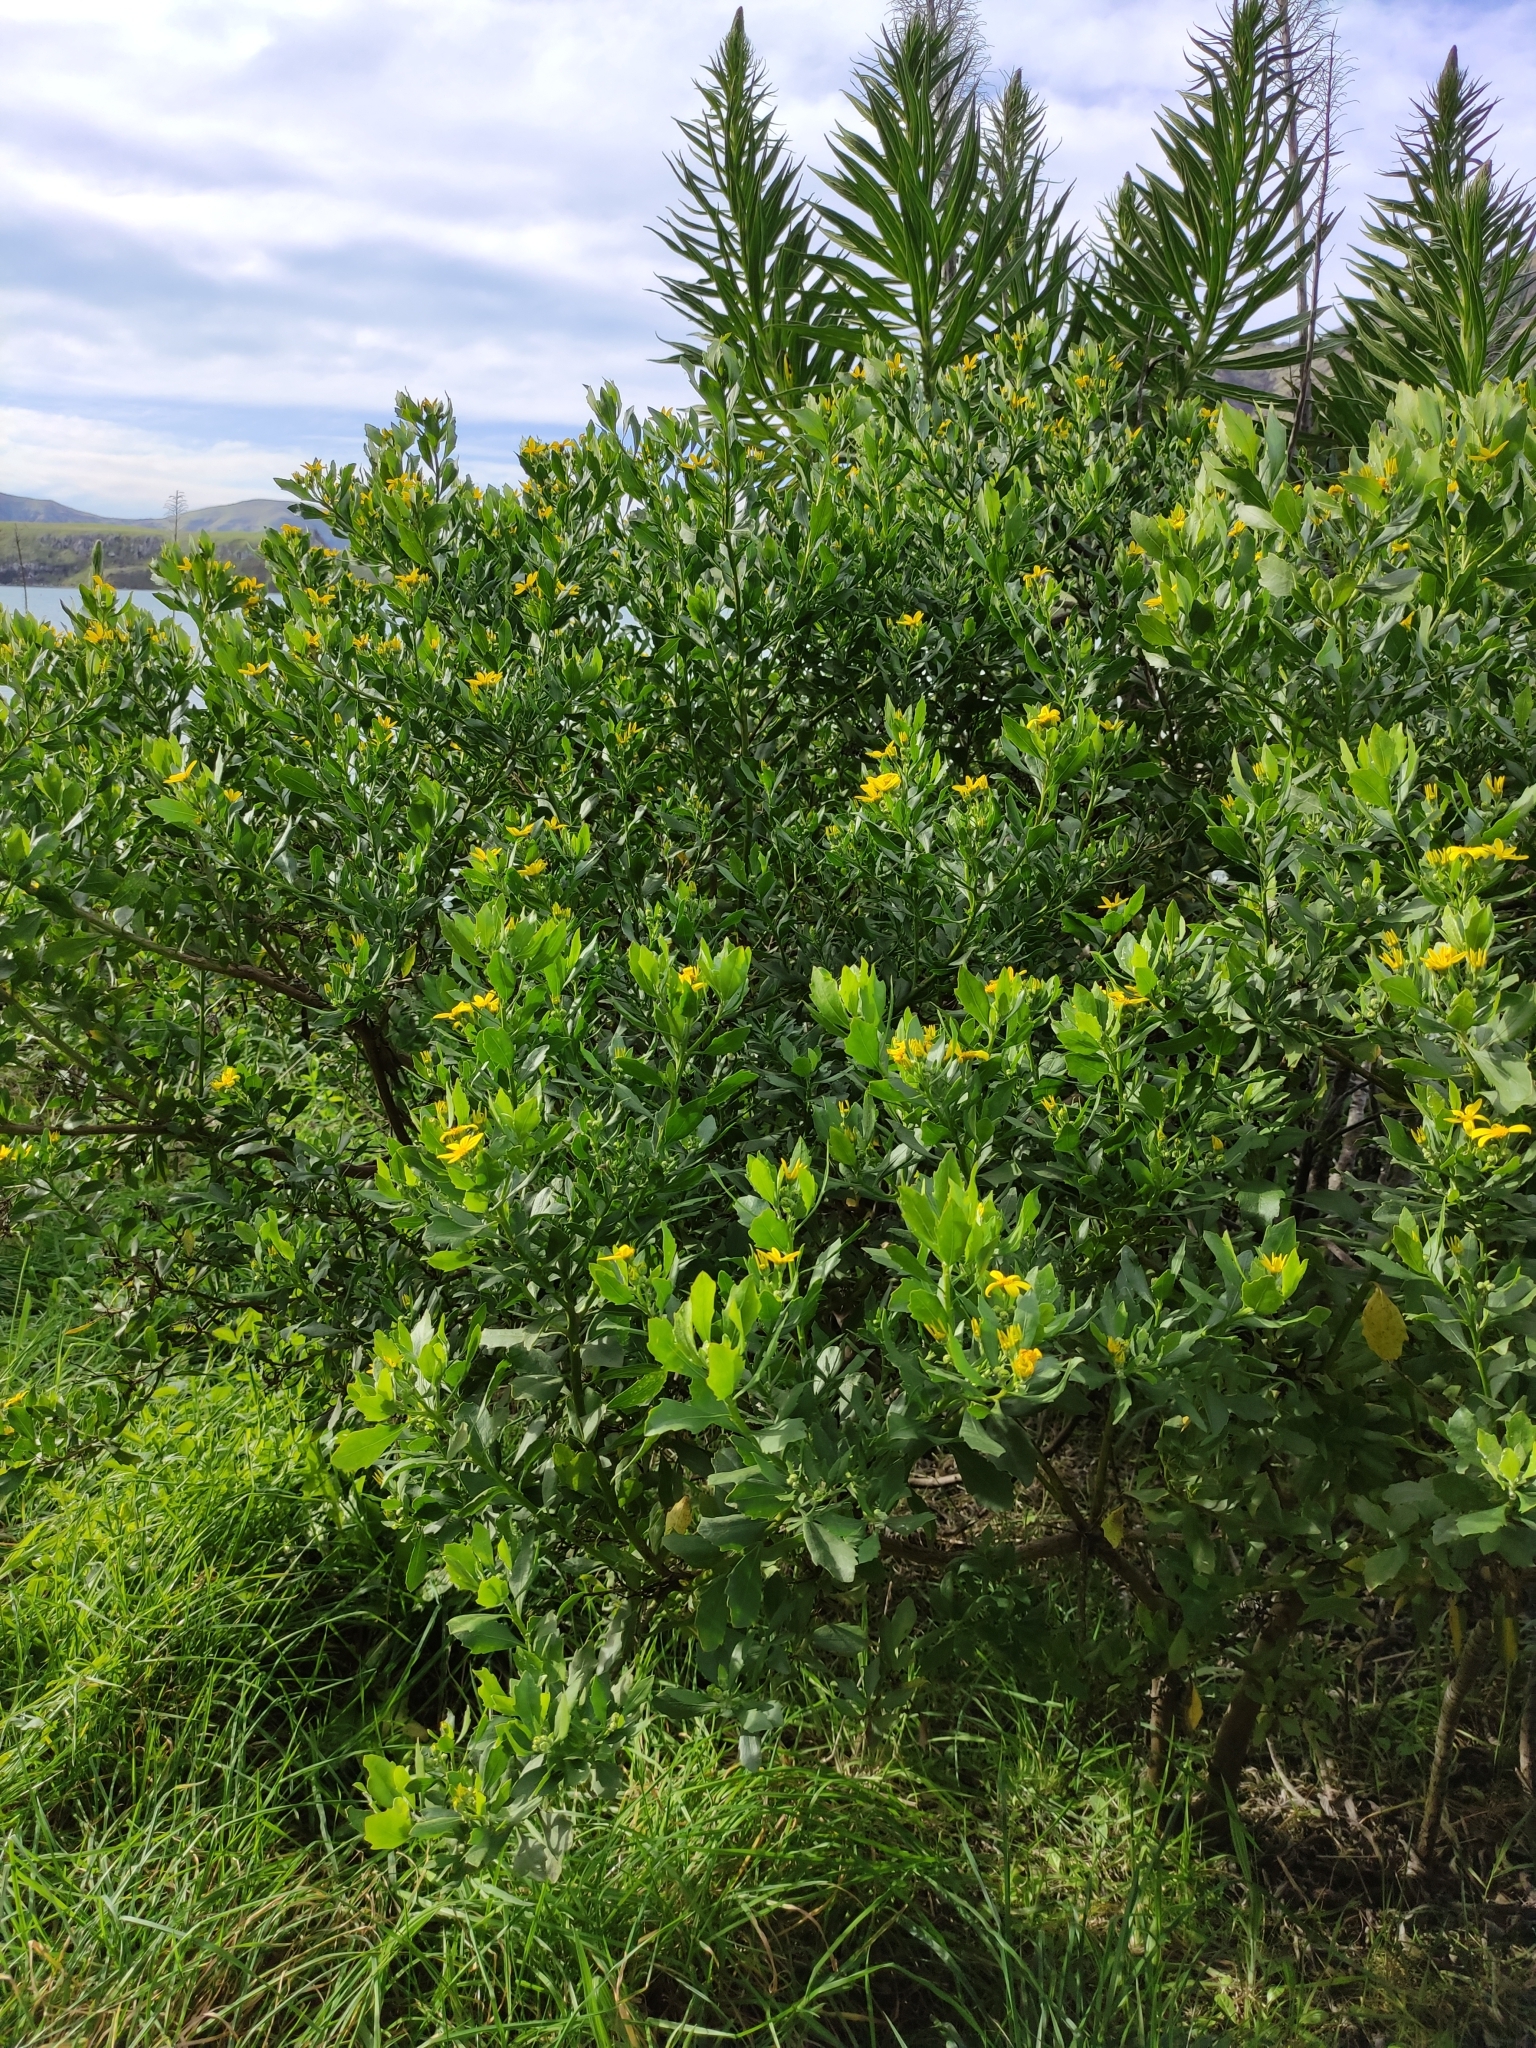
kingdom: Plantae
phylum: Tracheophyta
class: Magnoliopsida
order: Asterales
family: Asteraceae
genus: Osteospermum
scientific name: Osteospermum moniliferum
